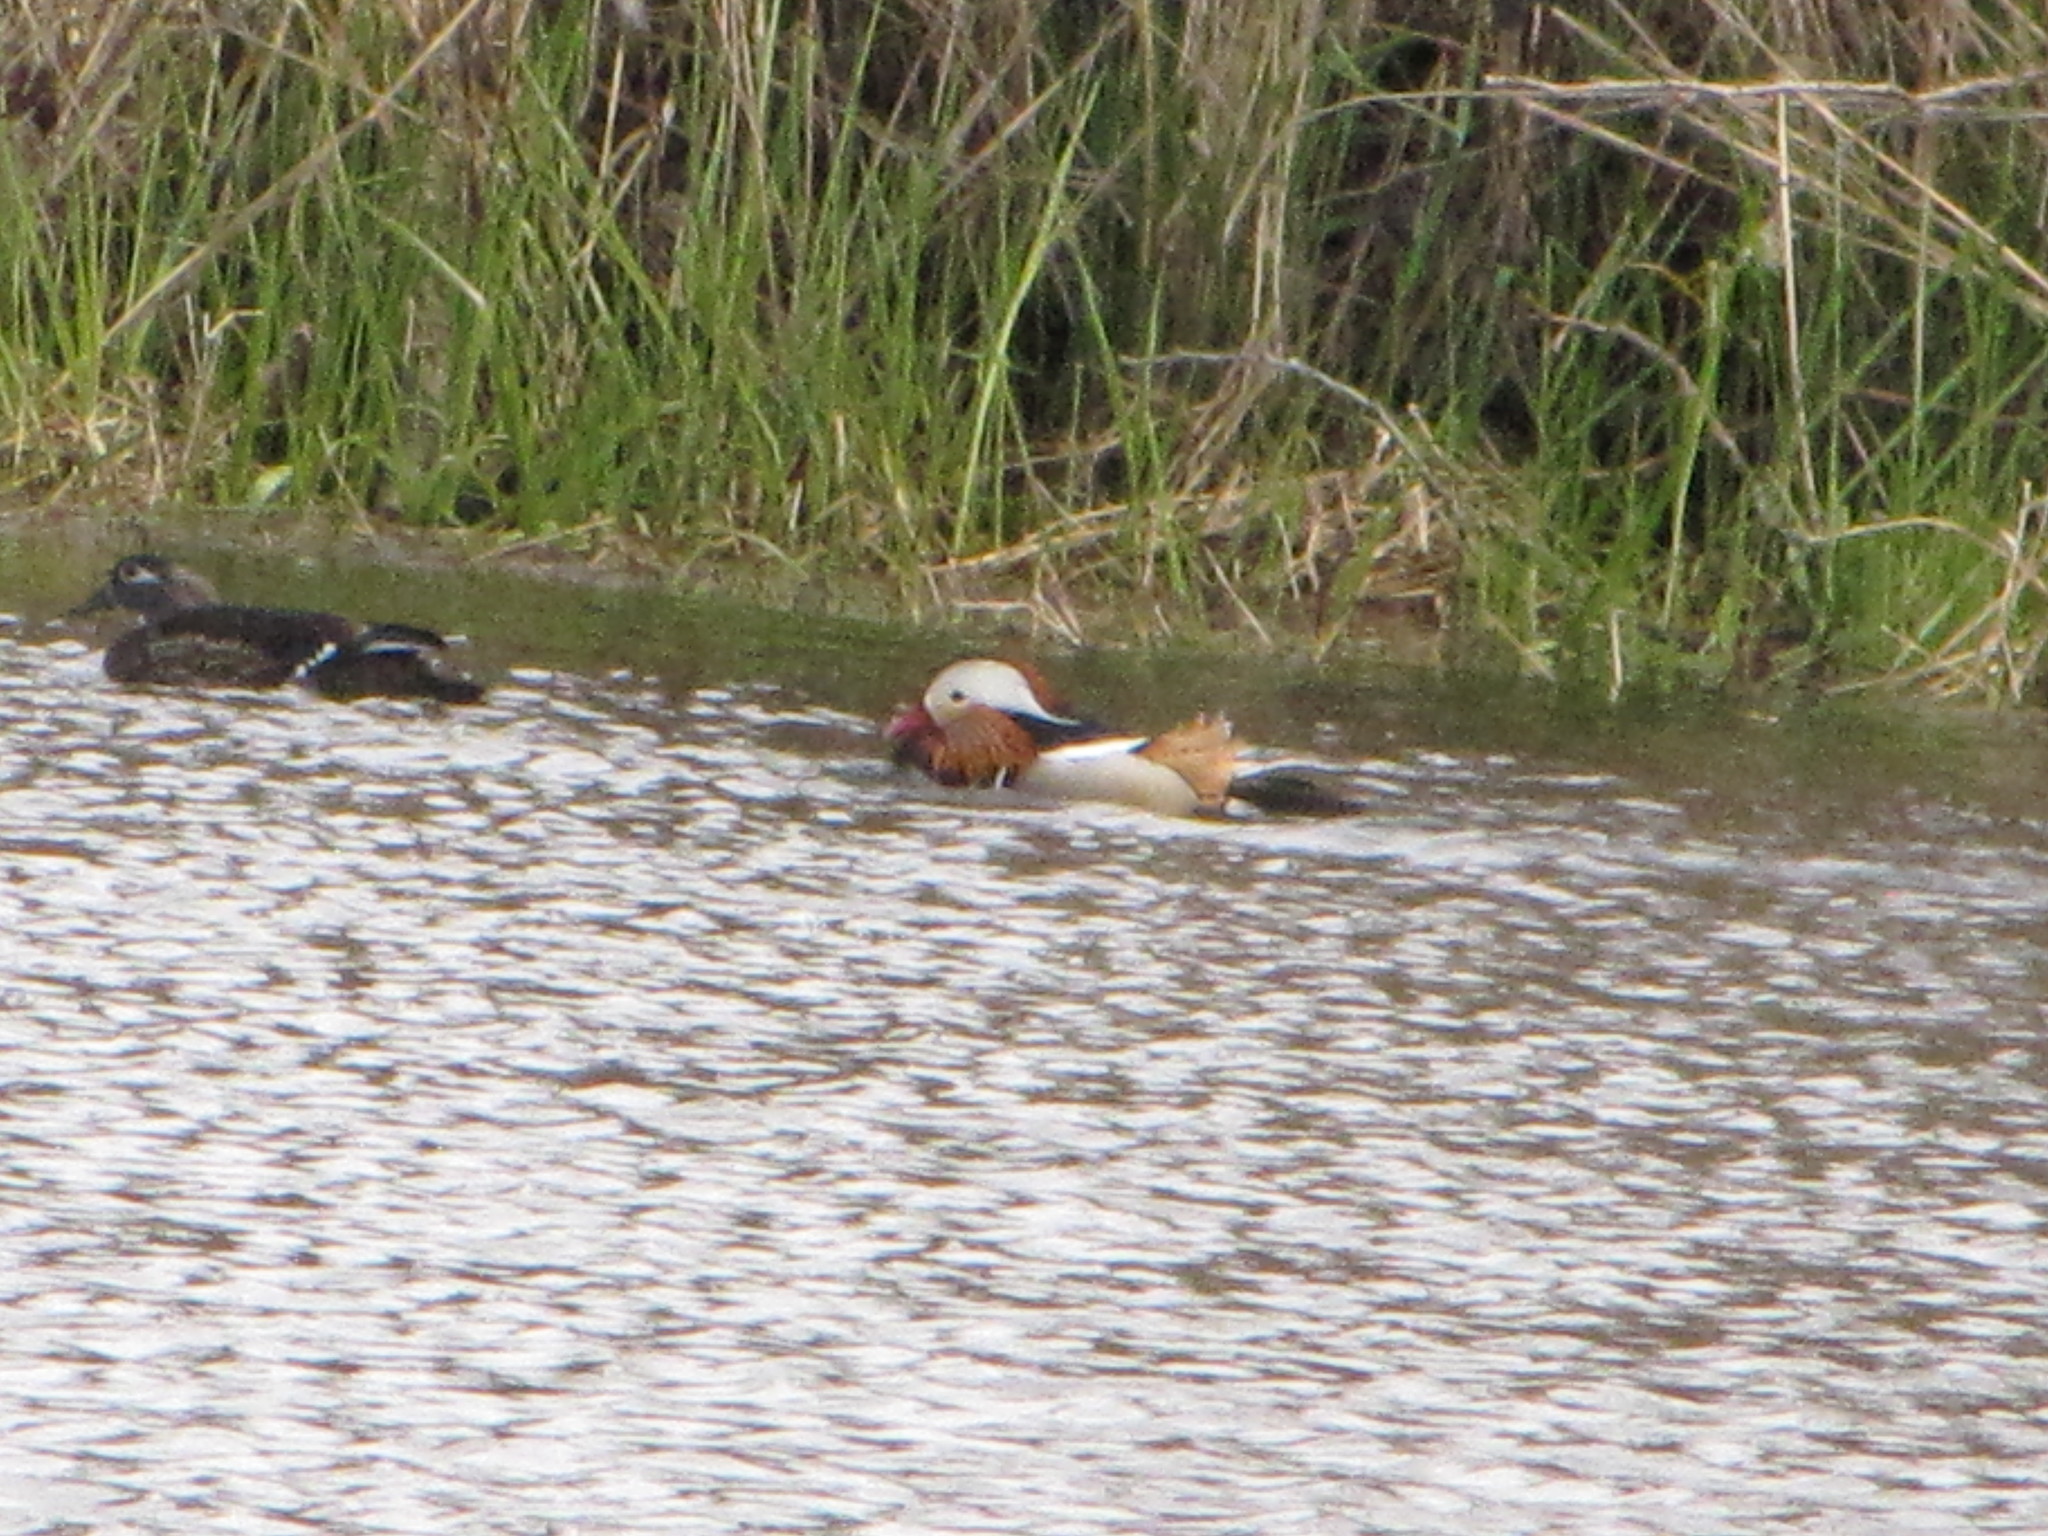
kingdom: Animalia
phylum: Chordata
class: Aves
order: Anseriformes
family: Anatidae
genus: Aix
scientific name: Aix galericulata
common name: Mandarin duck
